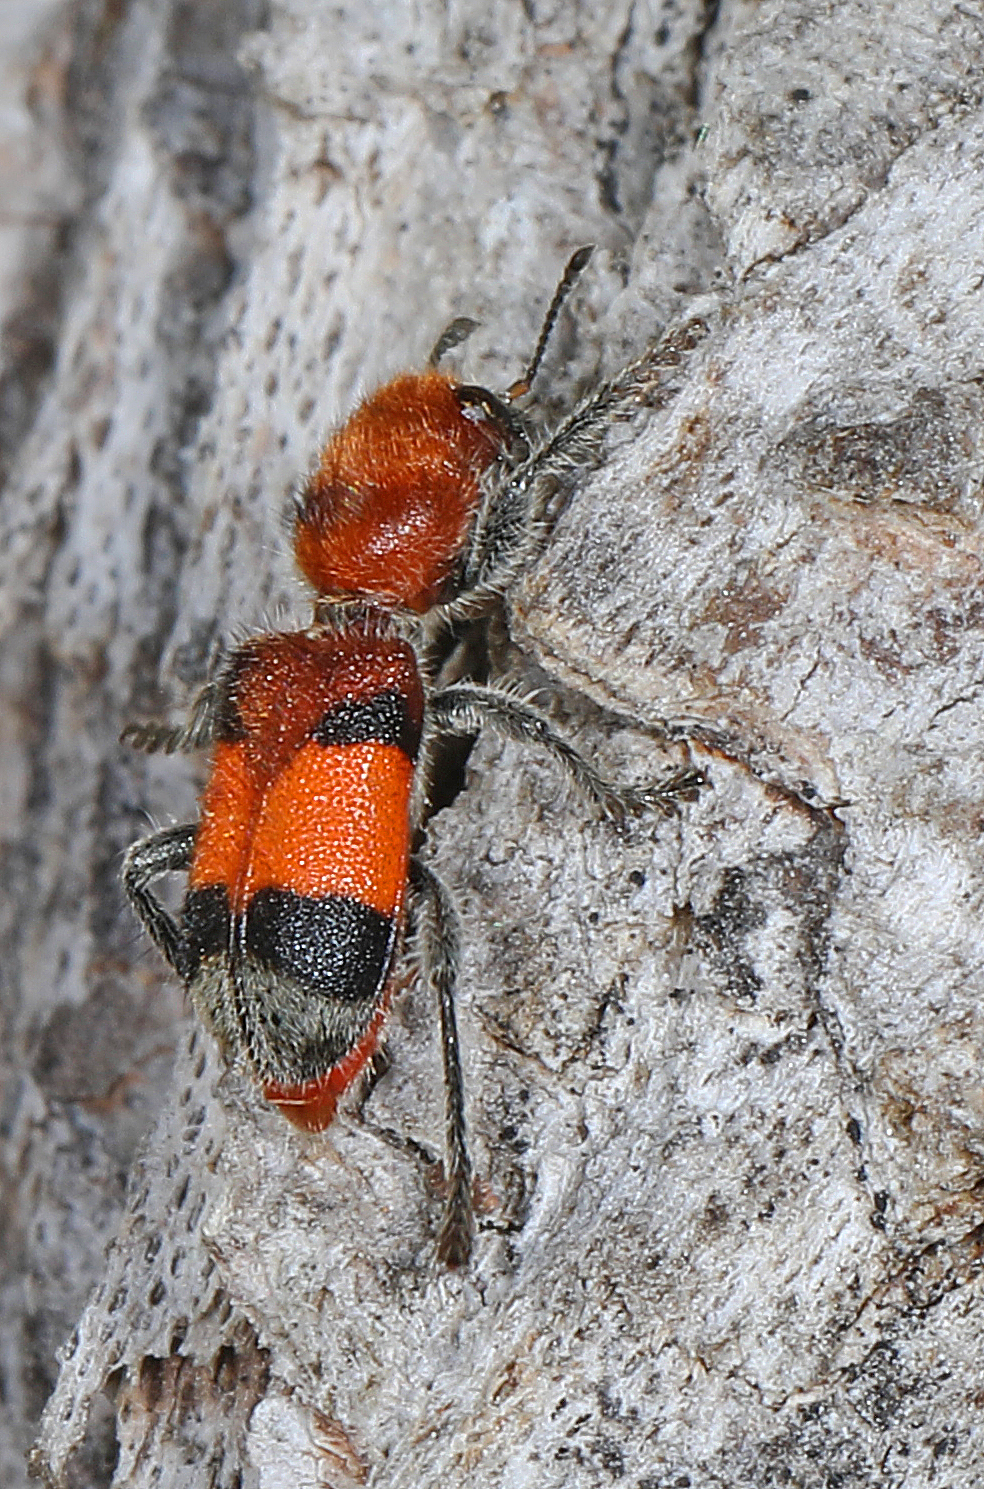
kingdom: Animalia
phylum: Arthropoda
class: Insecta
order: Coleoptera
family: Cleridae
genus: Enoclerus
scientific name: Enoclerus ichneumoneus
